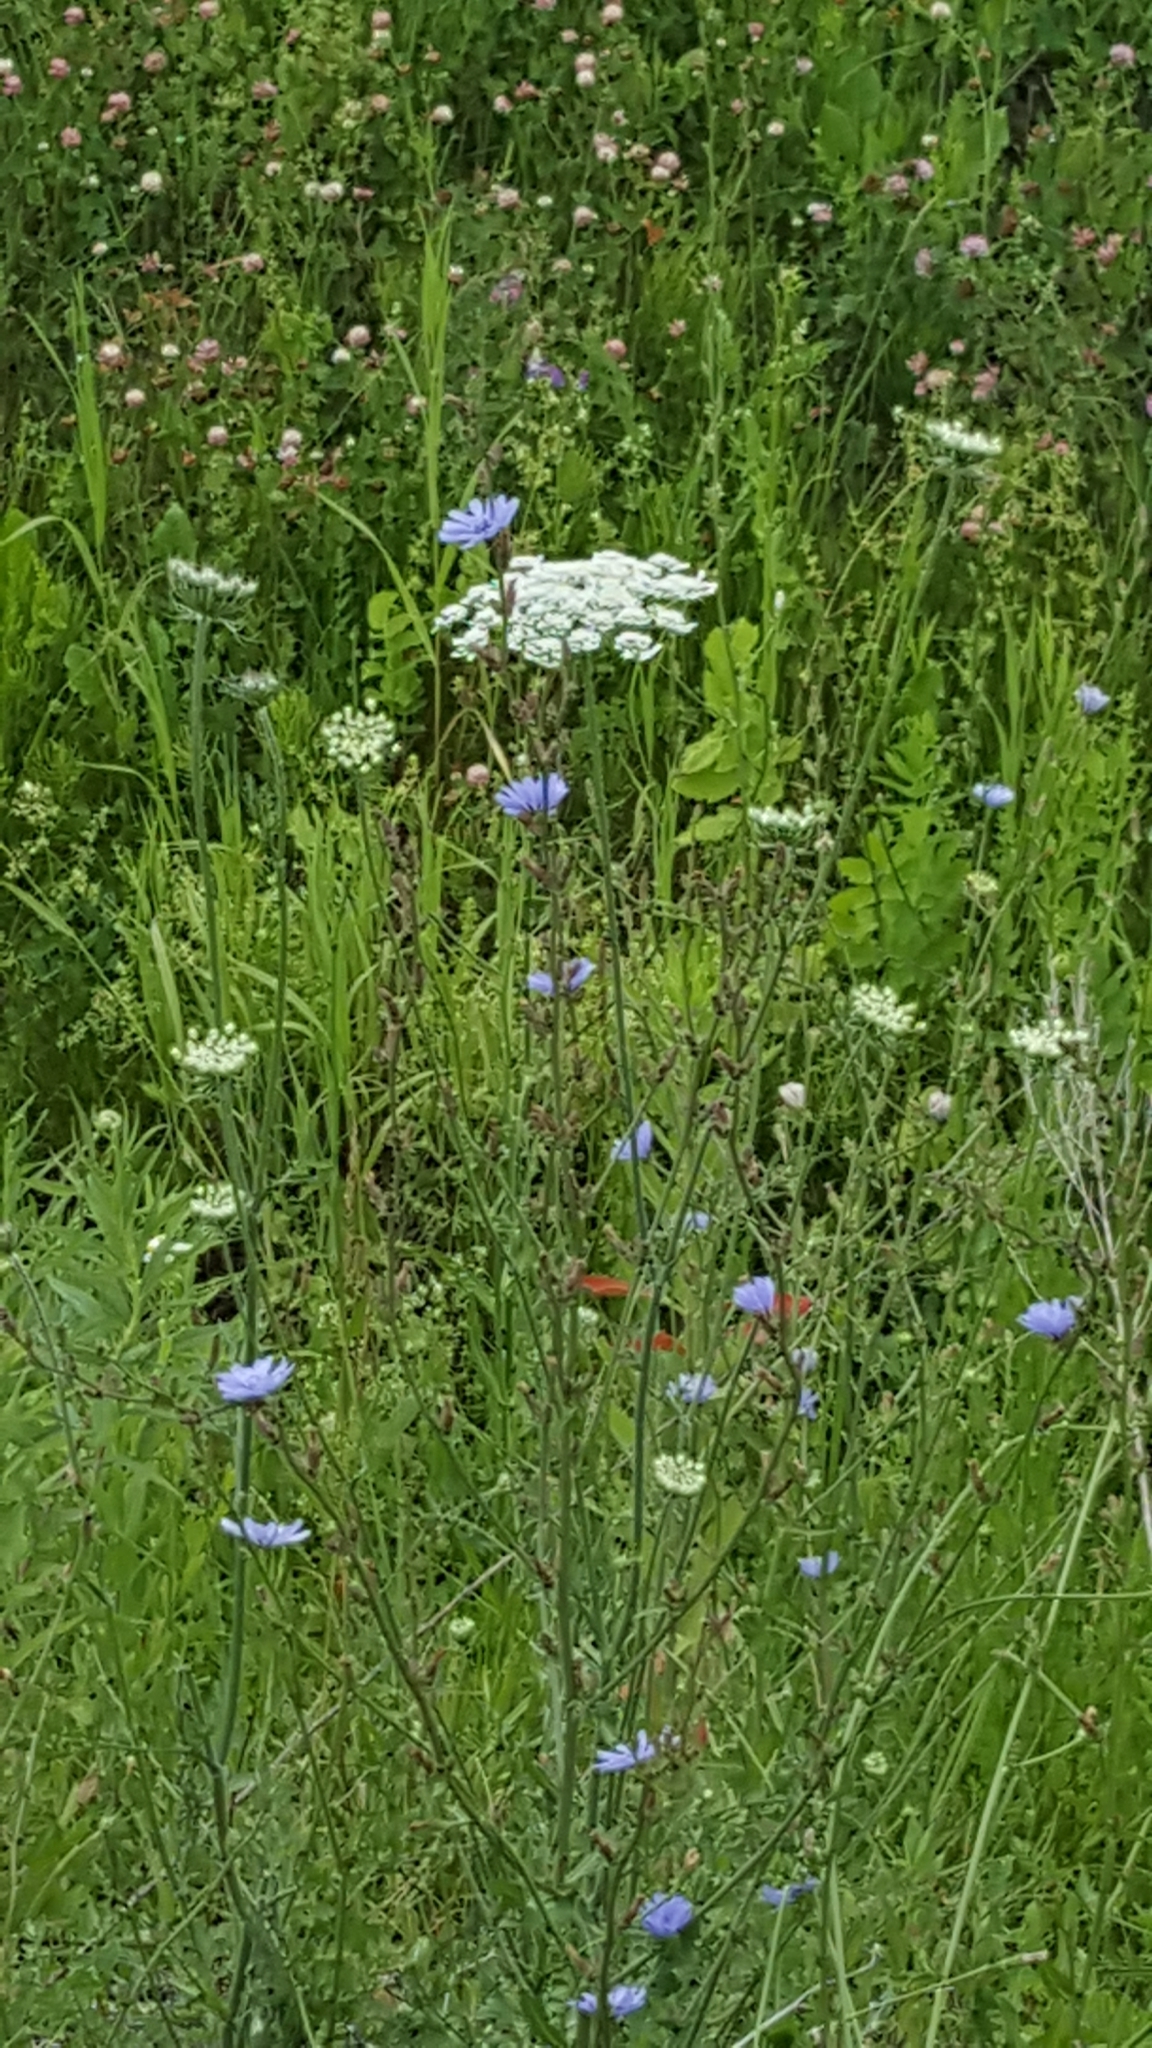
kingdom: Plantae
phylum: Tracheophyta
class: Magnoliopsida
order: Apiales
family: Apiaceae
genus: Daucus
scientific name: Daucus carota
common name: Wild carrot
